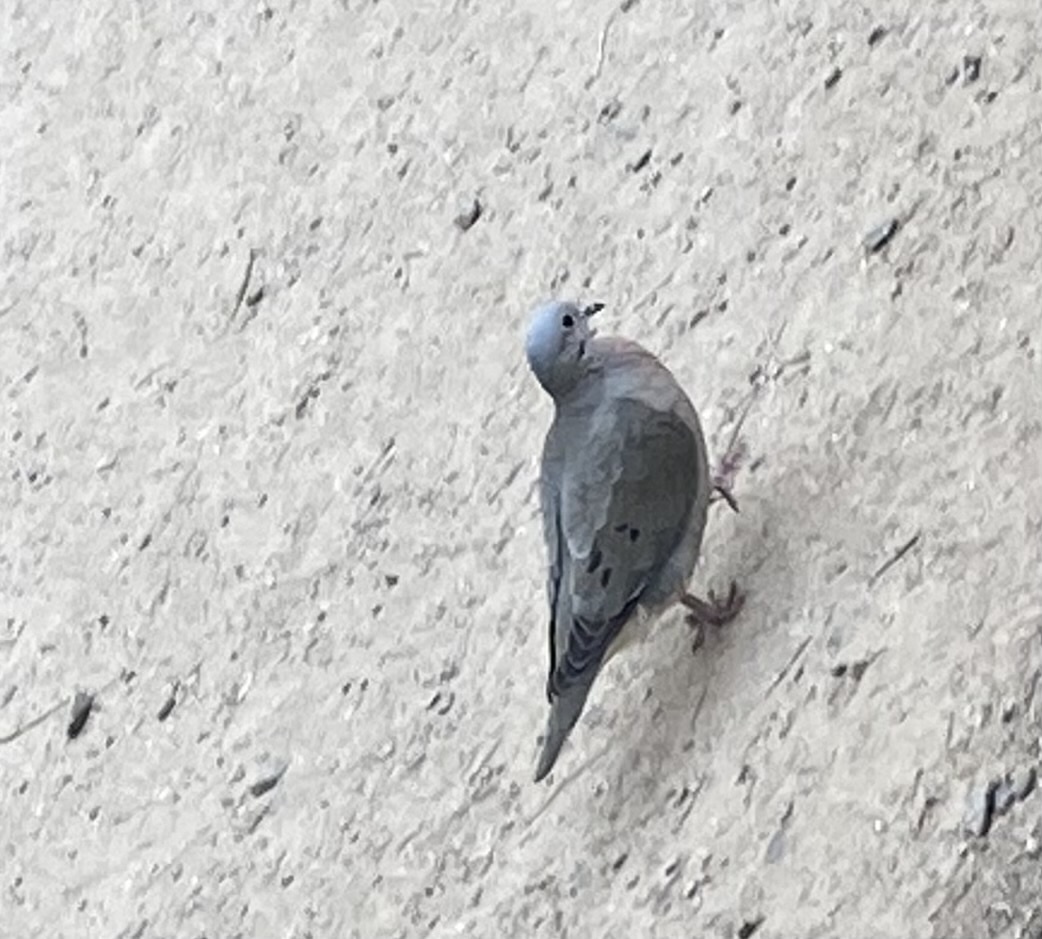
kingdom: Animalia
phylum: Chordata
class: Aves
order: Columbiformes
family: Columbidae
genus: Zenaida
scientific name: Zenaida auriculata
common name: Eared dove
